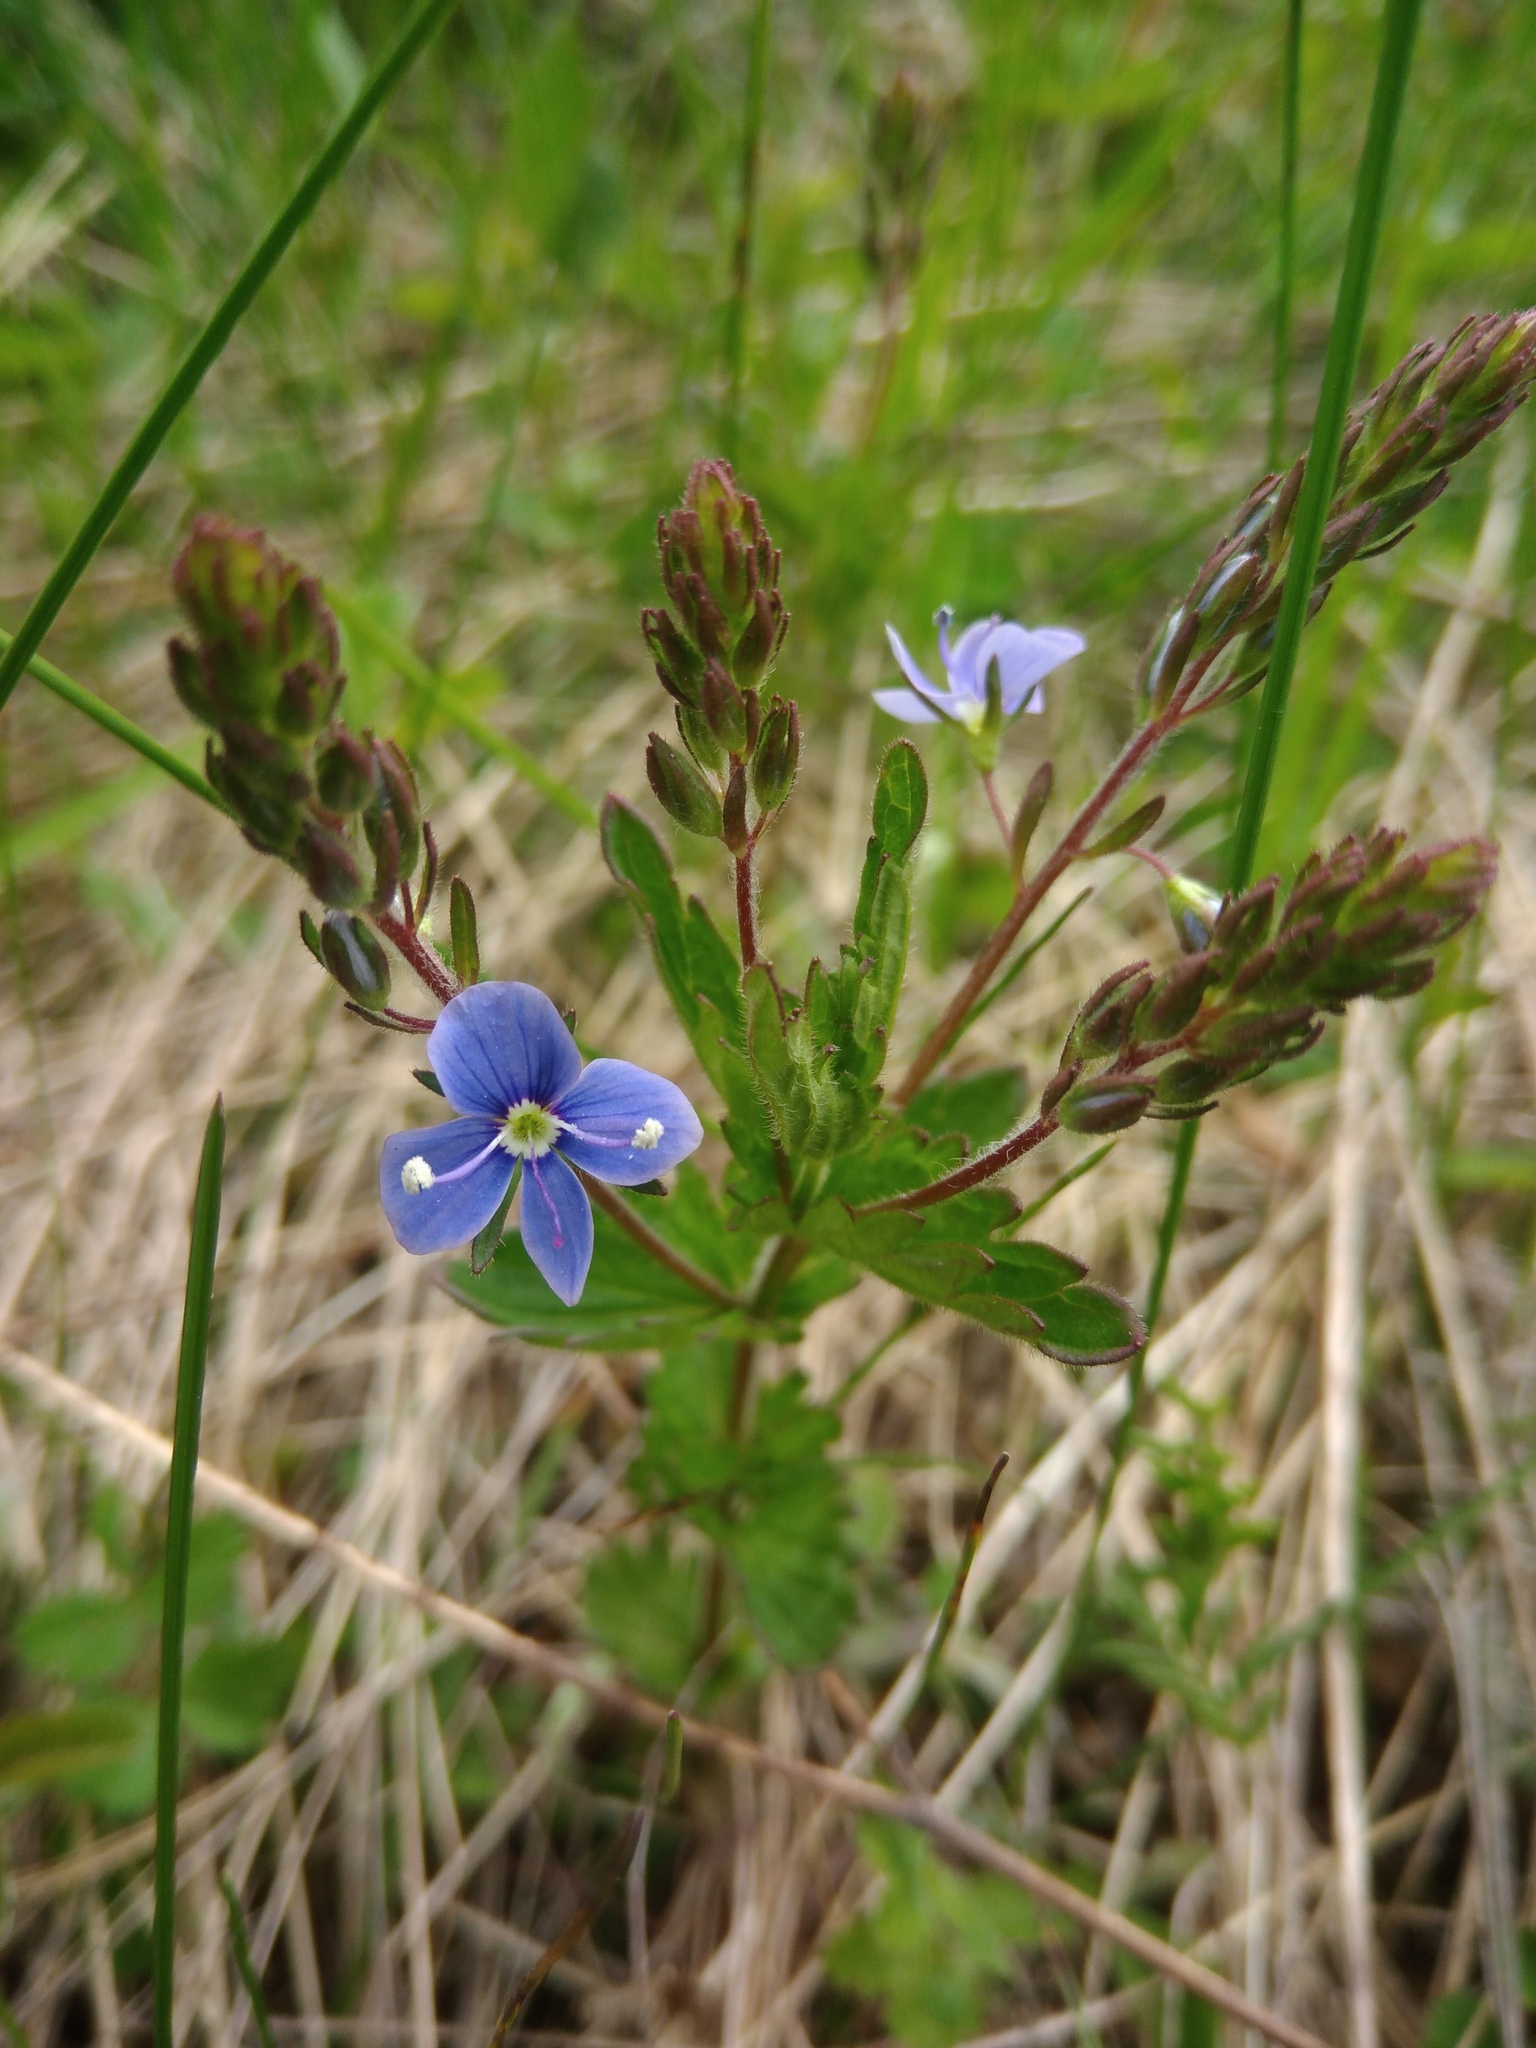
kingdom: Plantae
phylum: Tracheophyta
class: Magnoliopsida
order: Lamiales
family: Plantaginaceae
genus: Veronica
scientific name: Veronica chamaedrys
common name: Germander speedwell
